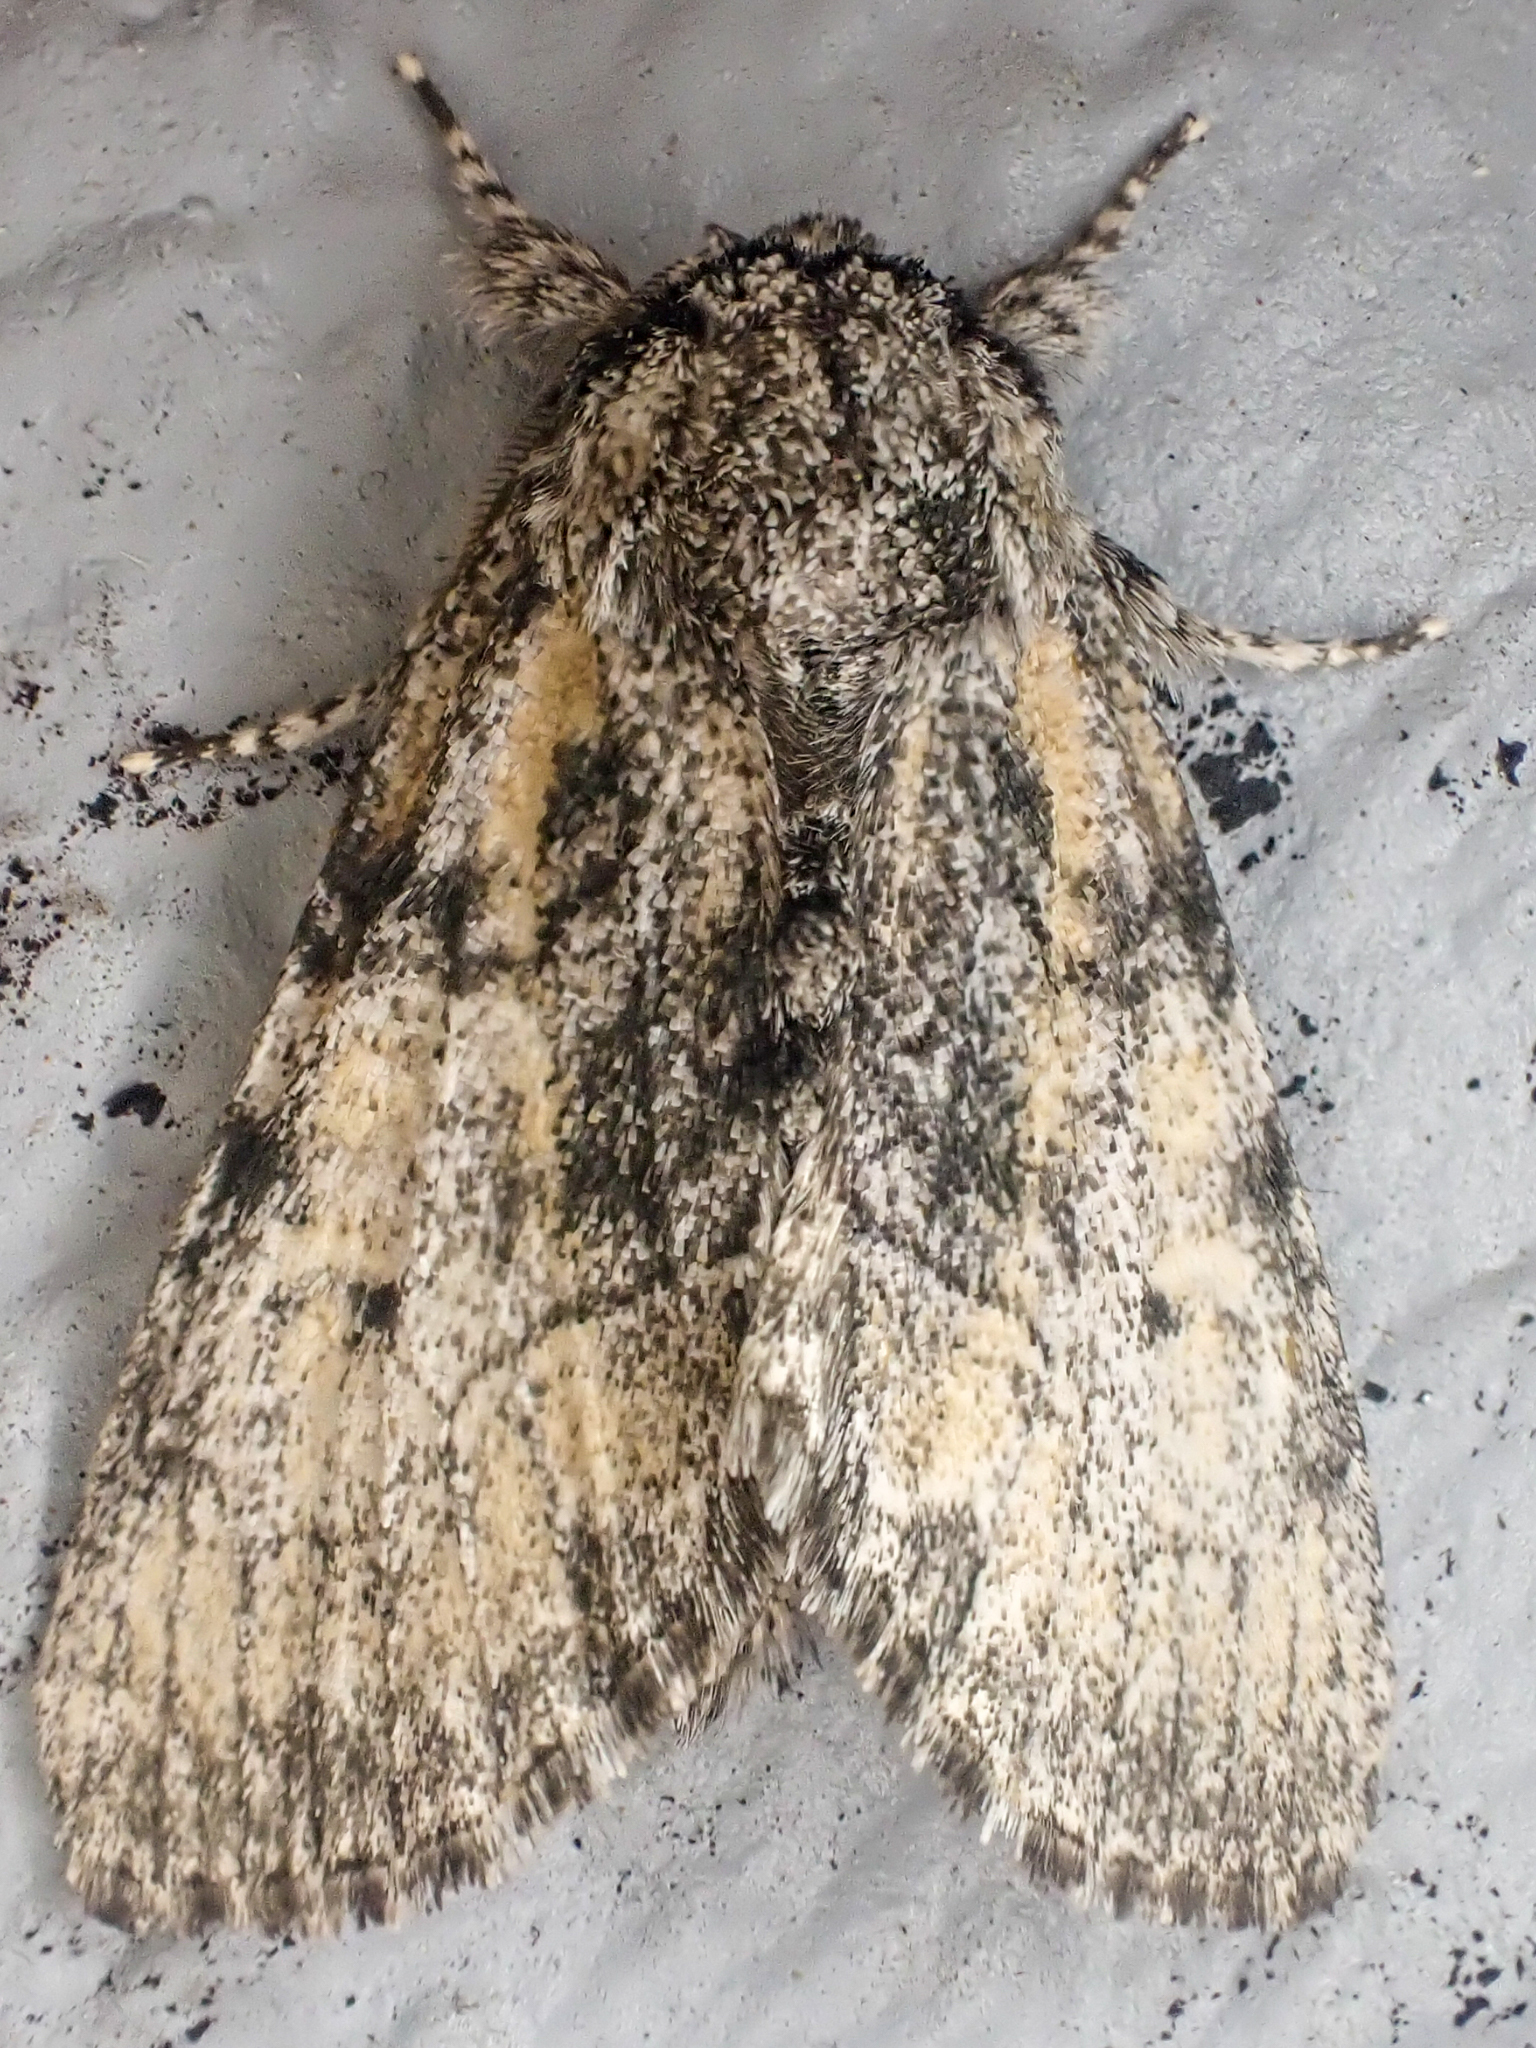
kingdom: Animalia
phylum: Arthropoda
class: Insecta
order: Lepidoptera
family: Noctuidae
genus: Raphia
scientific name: Raphia frater
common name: Brother
